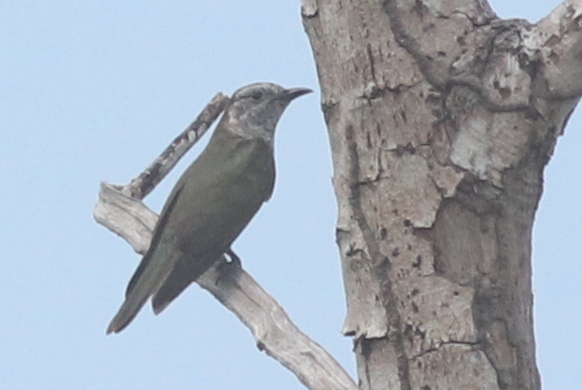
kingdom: Animalia
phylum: Chordata
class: Aves
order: Cuculiformes
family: Cuculidae
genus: Chrysococcyx
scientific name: Chrysococcyx minutillus
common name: Little bronze cuckoo
